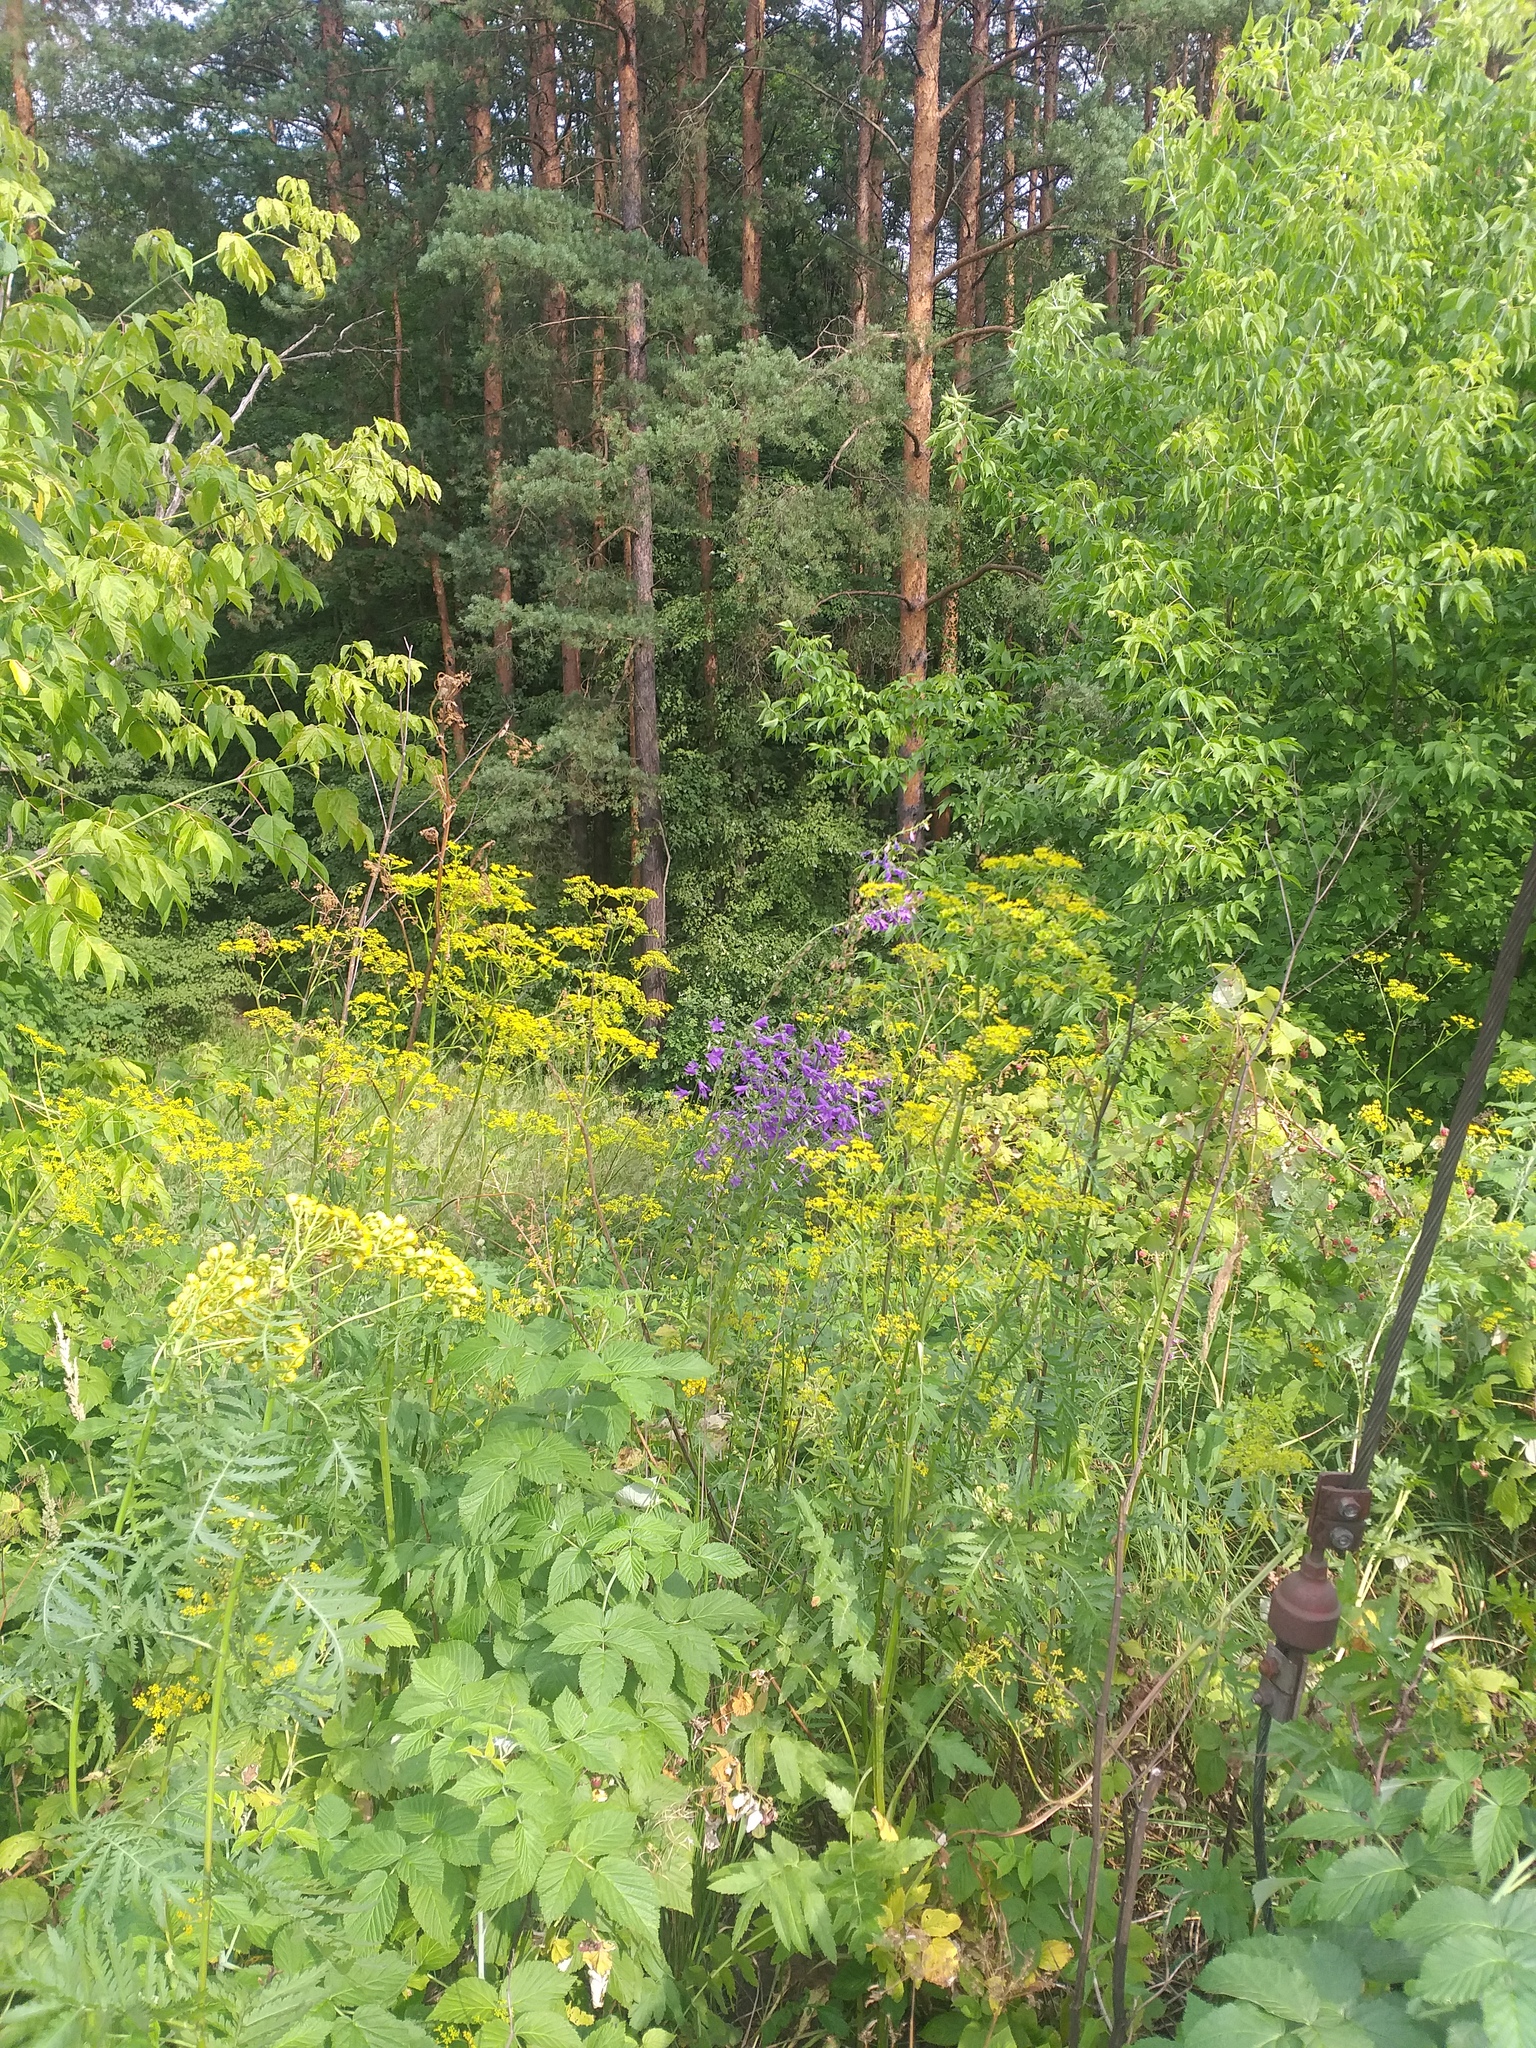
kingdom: Plantae
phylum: Tracheophyta
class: Magnoliopsida
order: Apiales
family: Apiaceae
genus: Pastinaca
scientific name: Pastinaca sativa
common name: Wild parsnip
